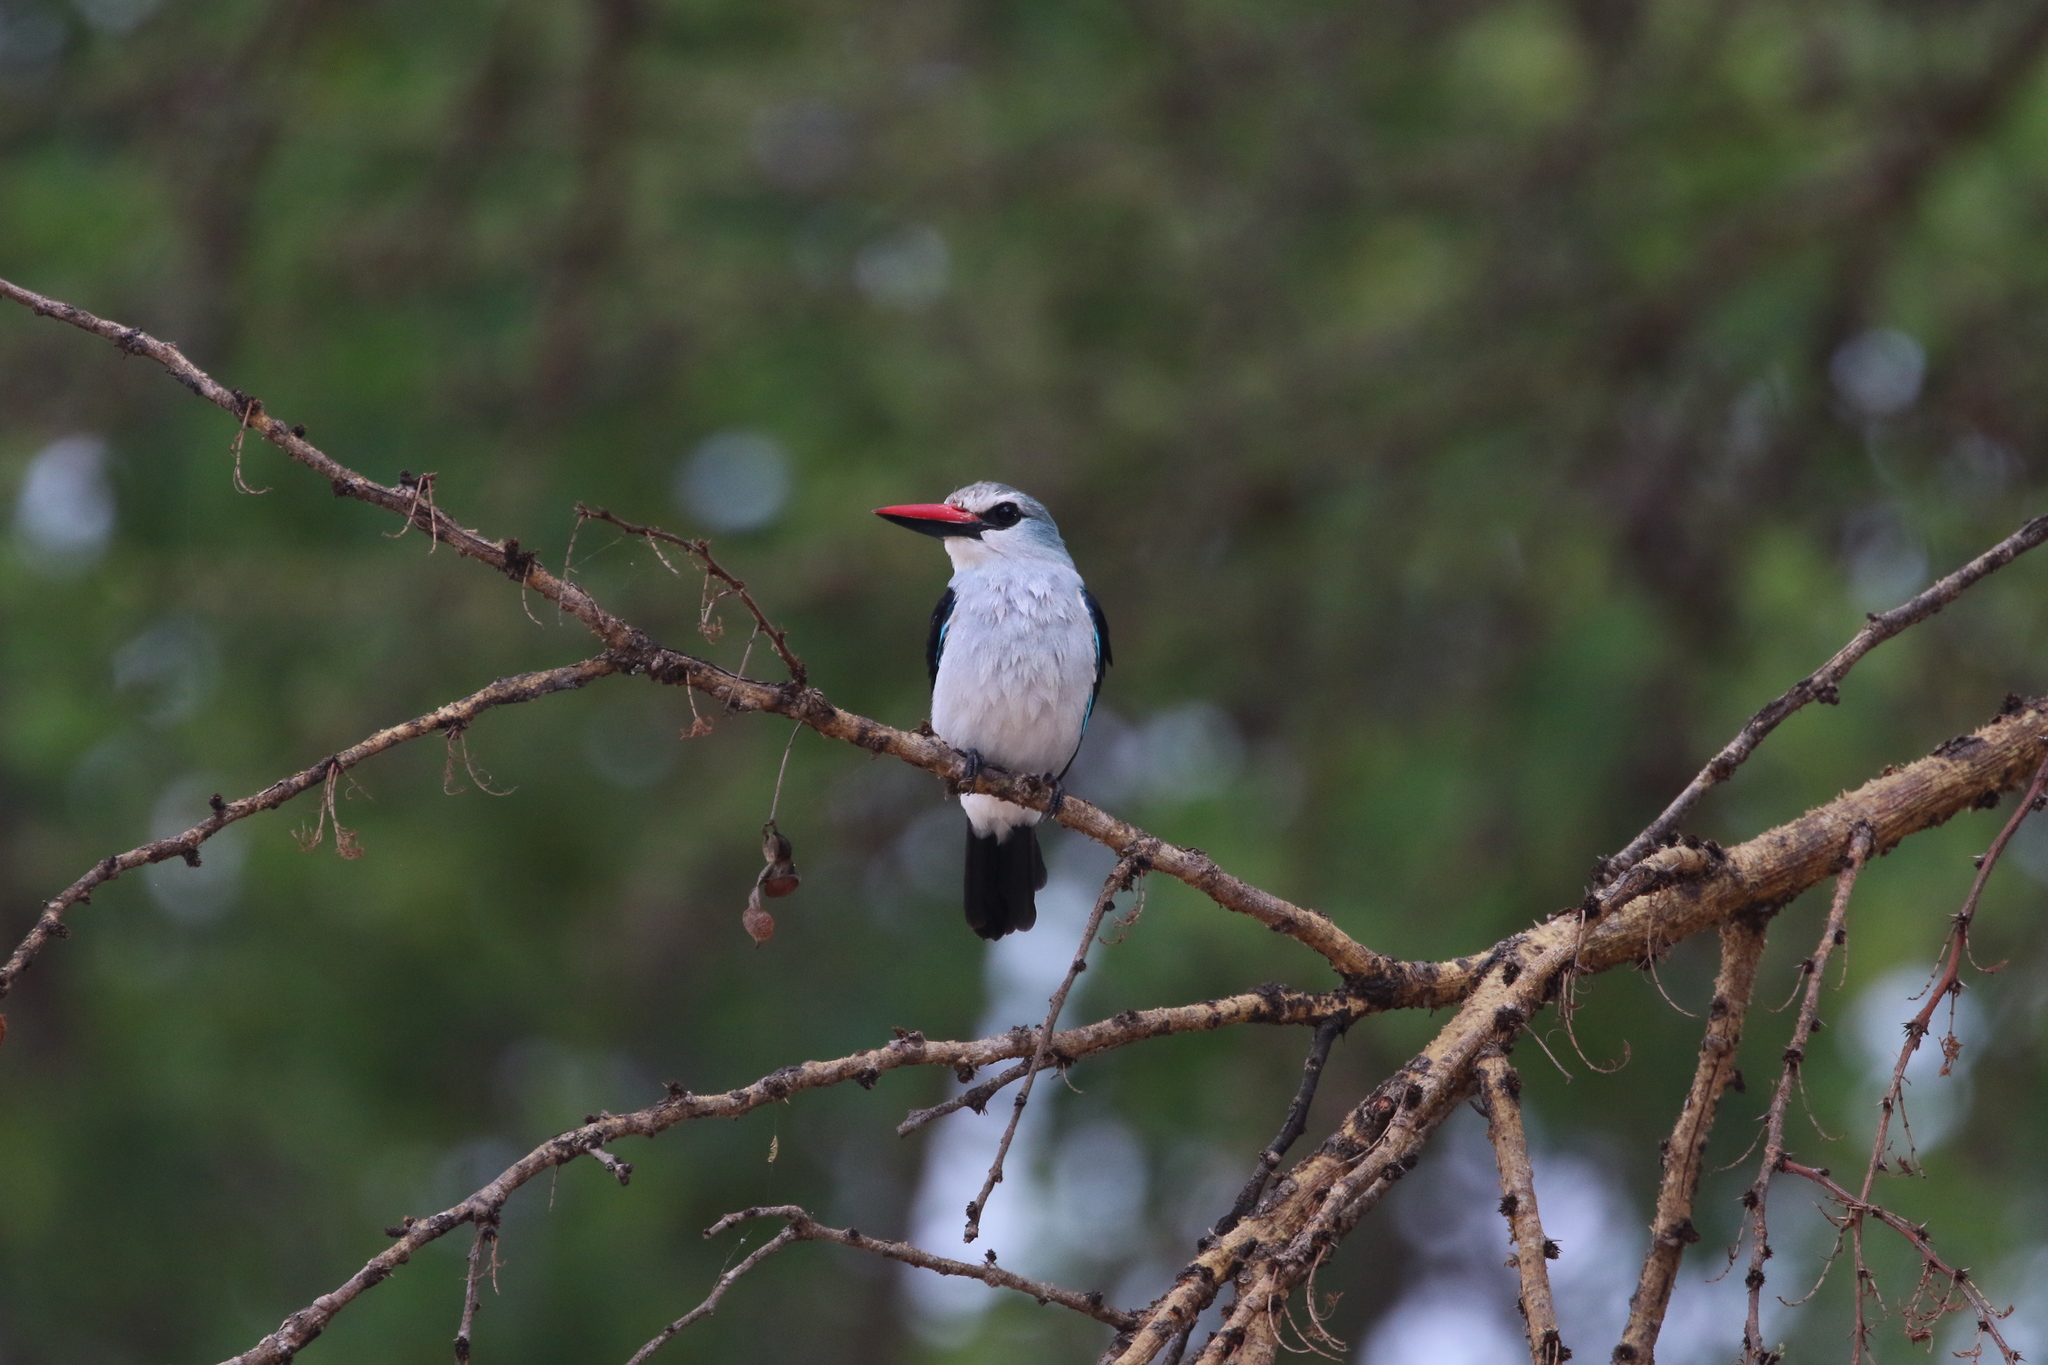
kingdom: Animalia
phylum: Chordata
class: Aves
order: Coraciiformes
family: Alcedinidae
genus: Halcyon
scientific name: Halcyon senegalensis
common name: Woodland kingfisher
